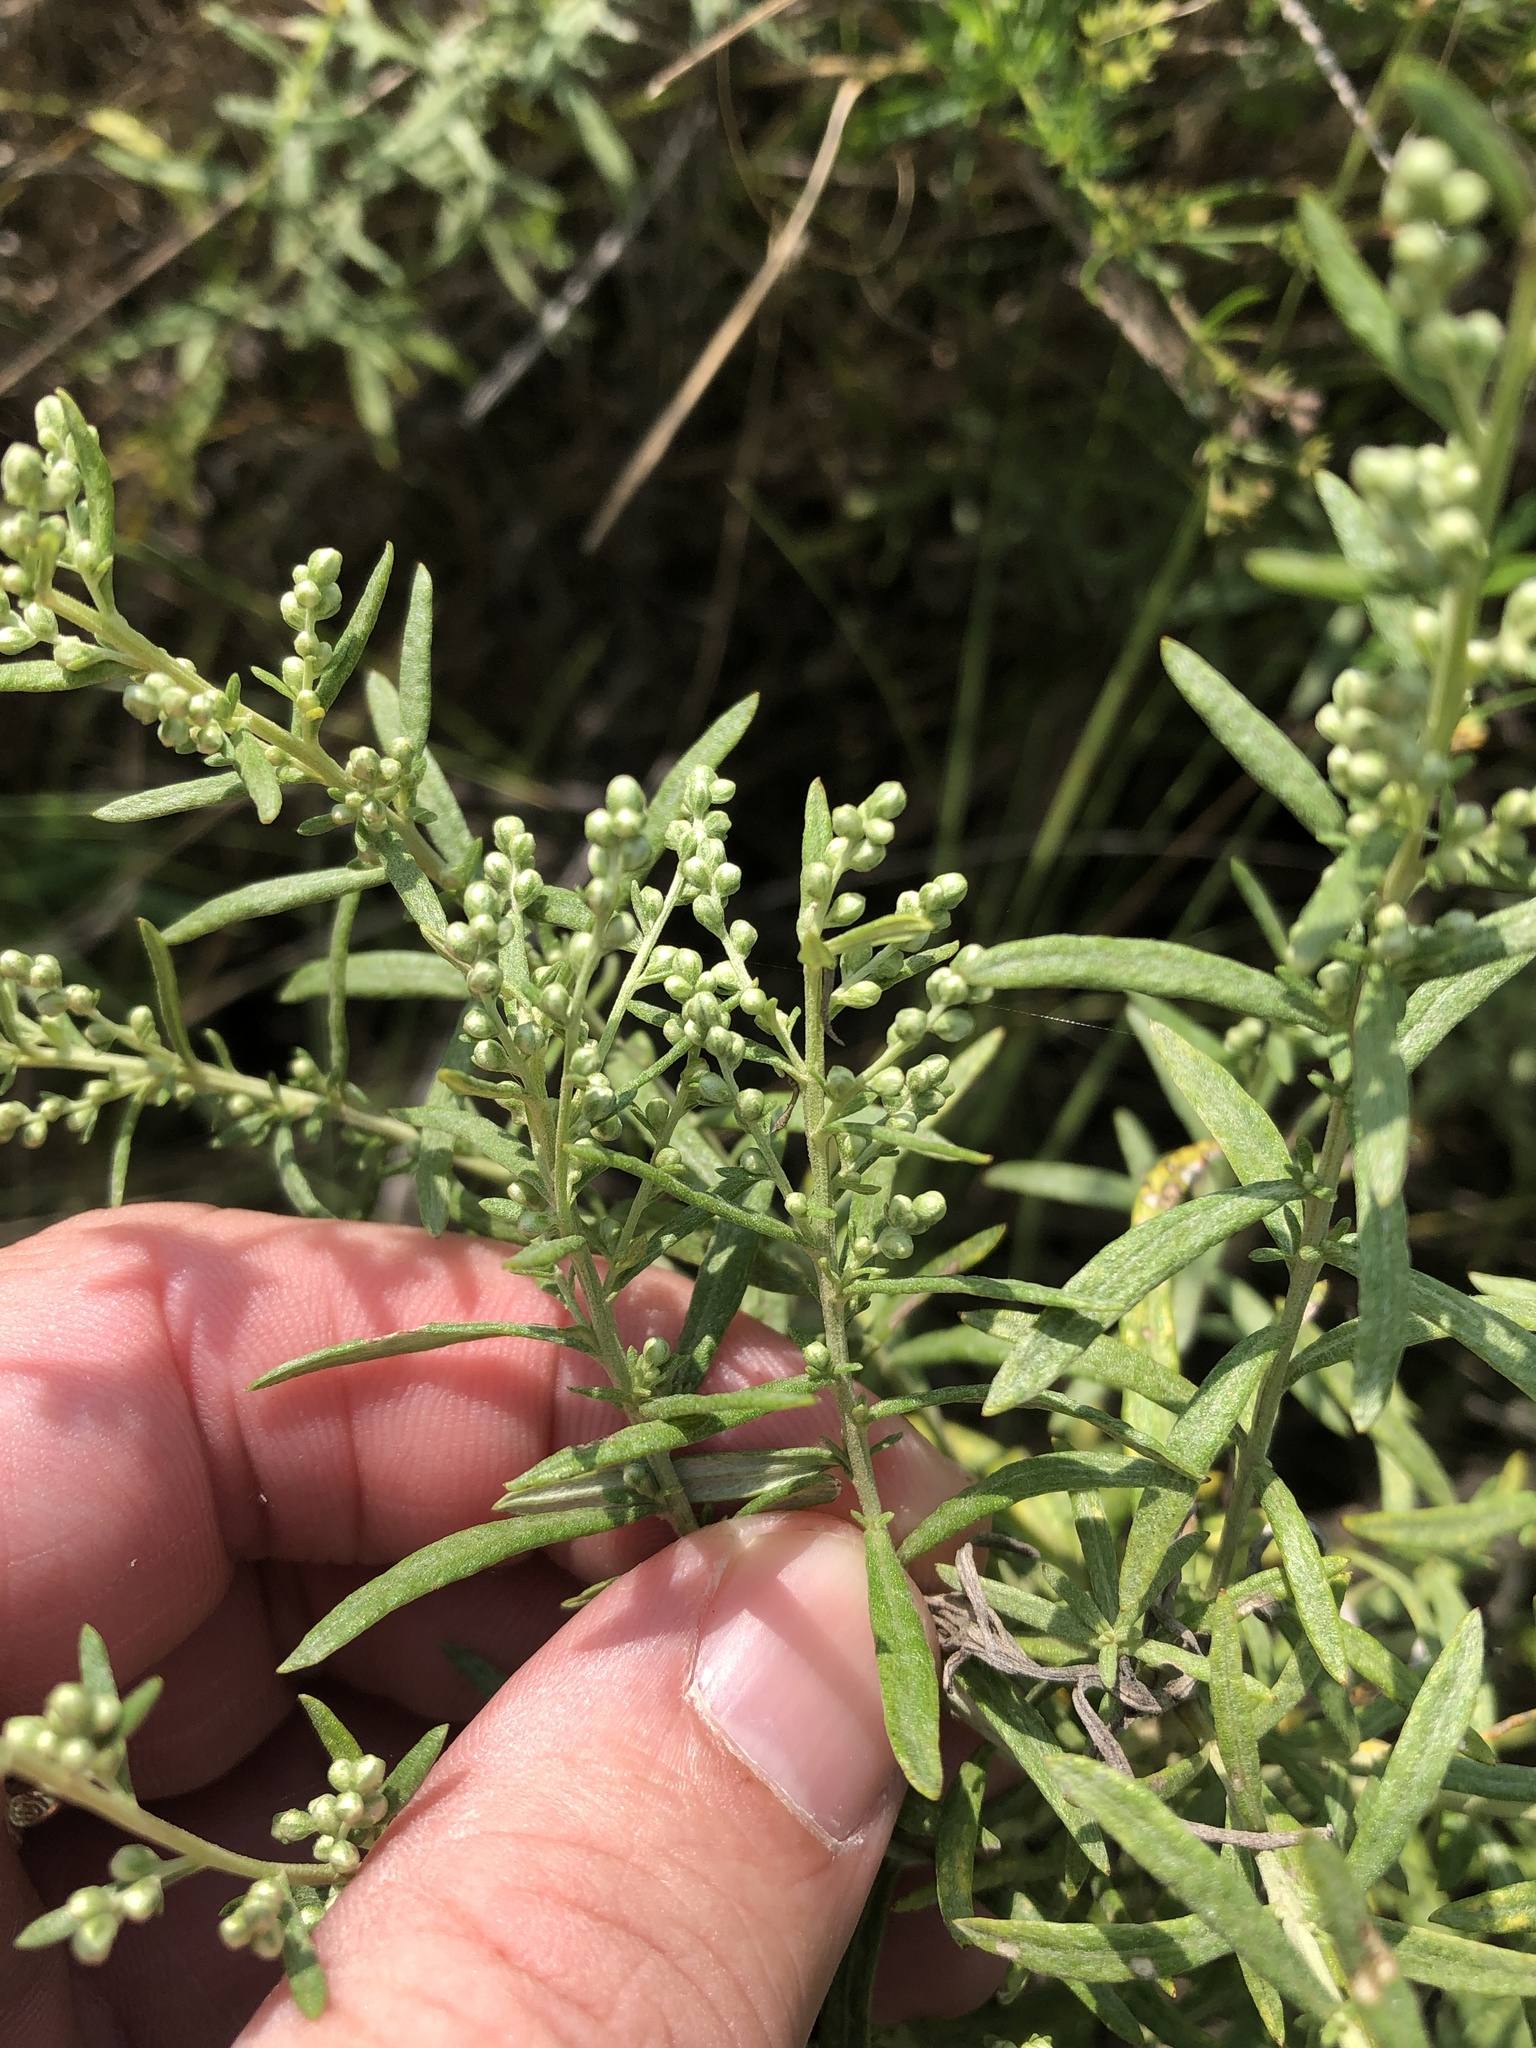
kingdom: Plantae
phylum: Tracheophyta
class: Magnoliopsida
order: Asterales
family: Asteraceae
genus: Artemisia
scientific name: Artemisia ludoviciana
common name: Western mugwort
